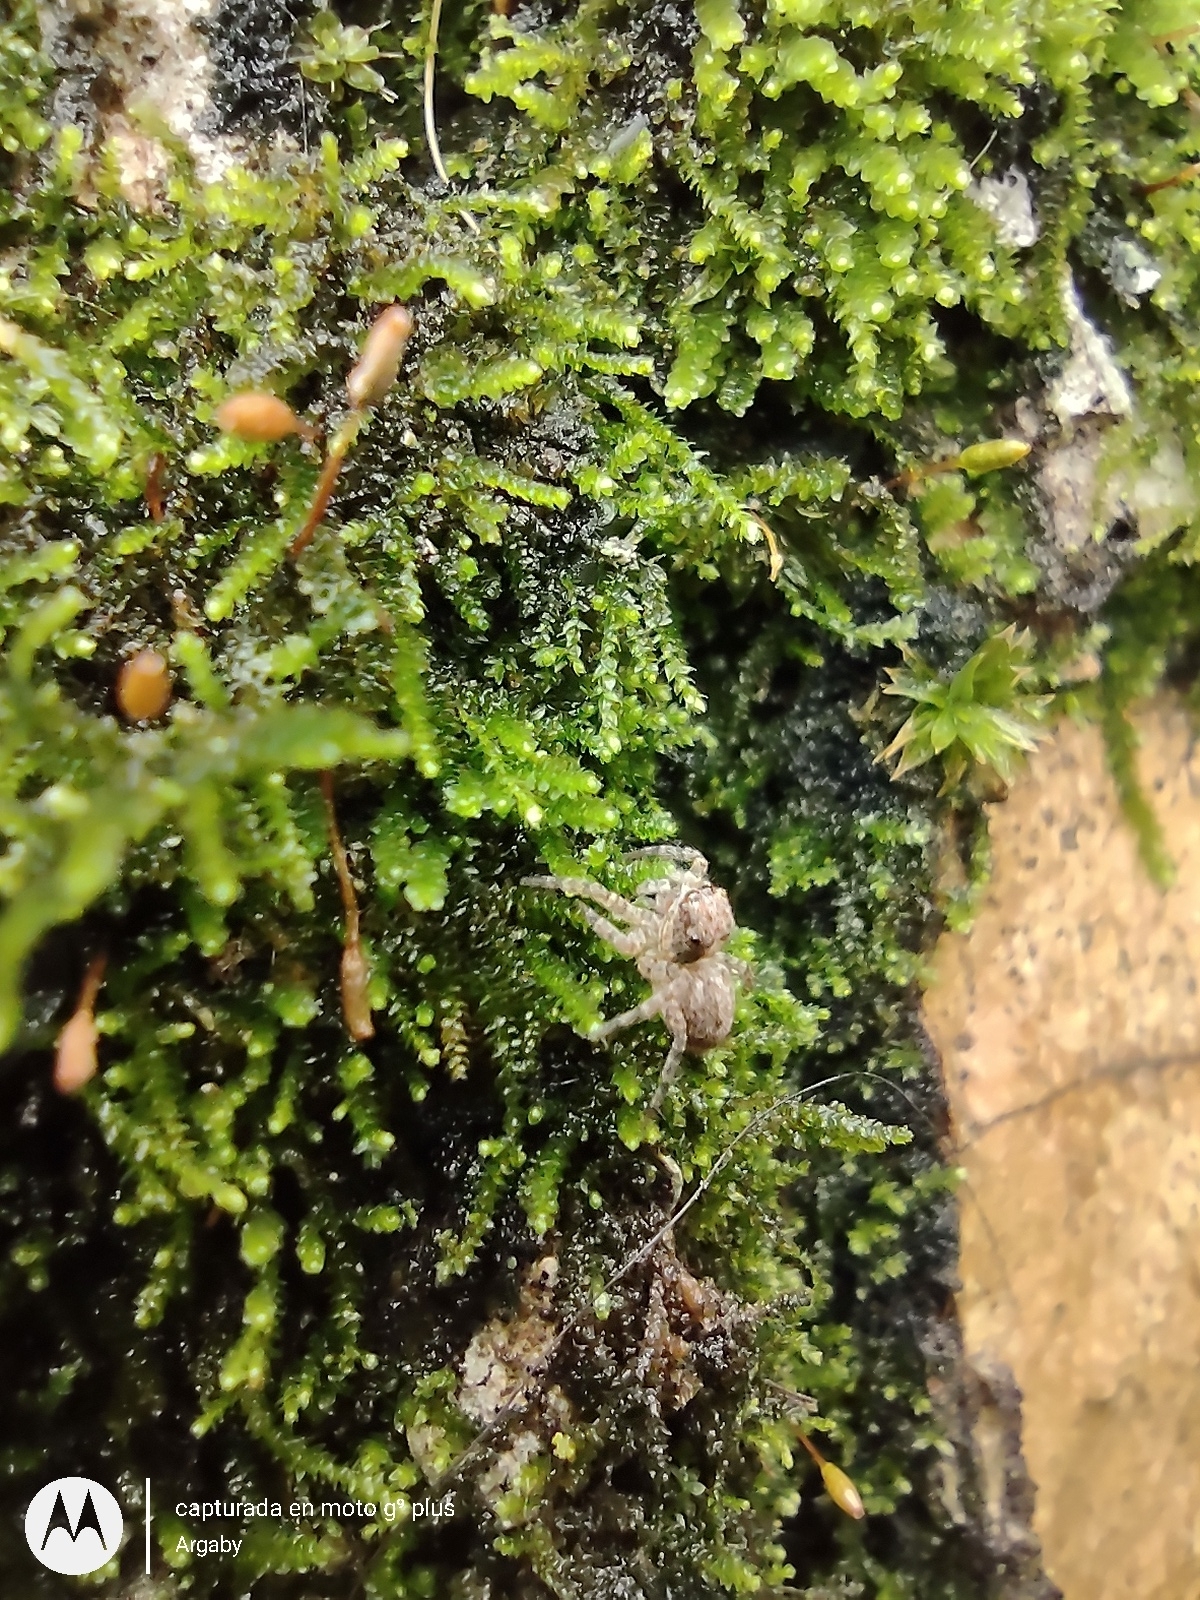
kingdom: Animalia
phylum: Arthropoda
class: Arachnida
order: Araneae
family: Salticidae
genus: Saitis
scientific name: Saitis variegatus
